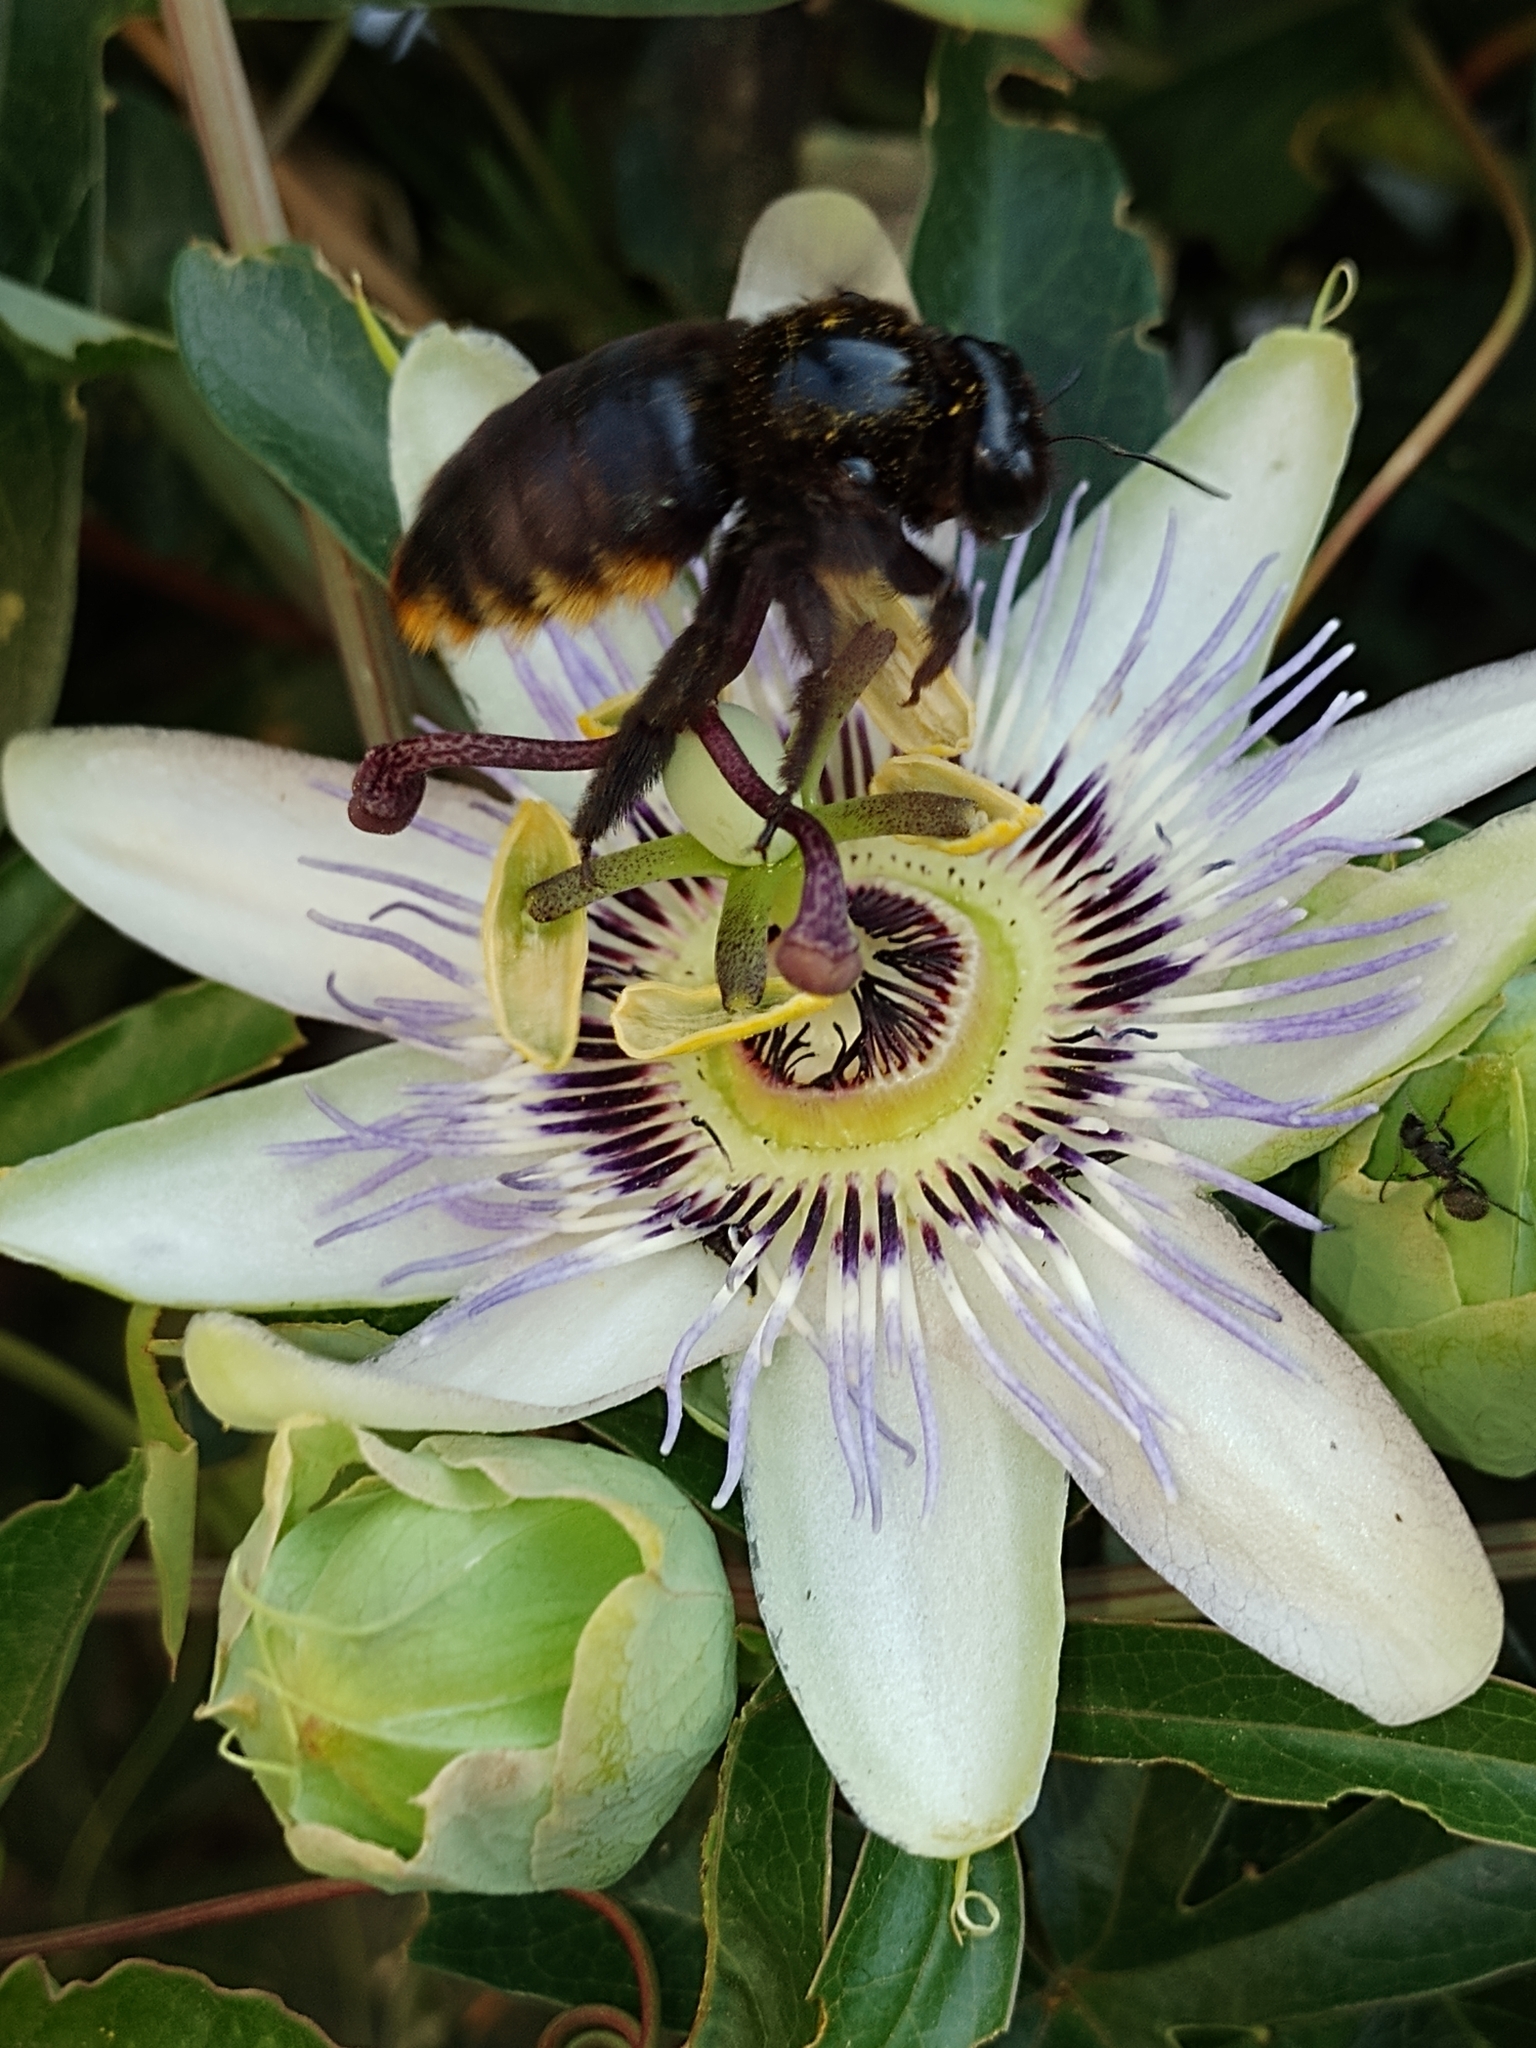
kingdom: Animalia
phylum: Arthropoda
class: Insecta
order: Hymenoptera
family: Apidae
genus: Xylocopa
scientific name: Xylocopa augusti
